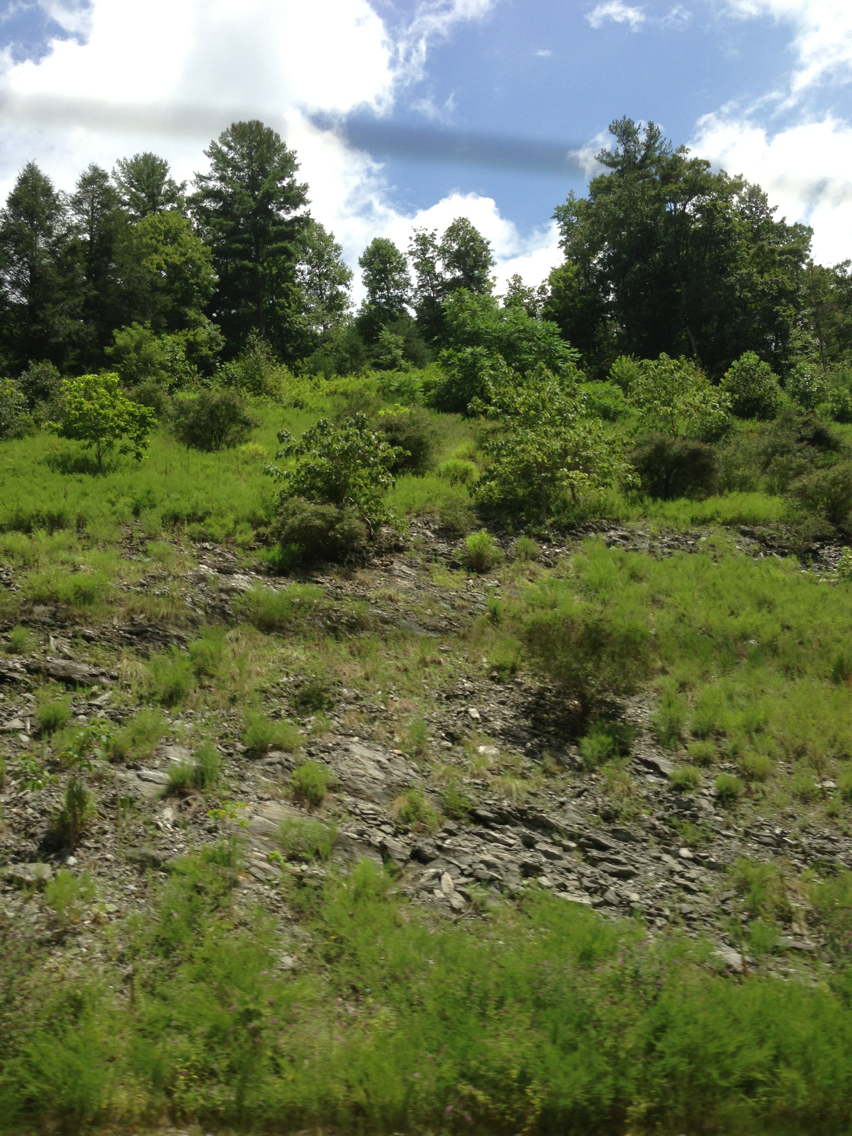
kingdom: Plantae
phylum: Tracheophyta
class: Pinopsida
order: Pinales
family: Pinaceae
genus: Pinus
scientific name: Pinus strobus
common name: Weymouth pine
